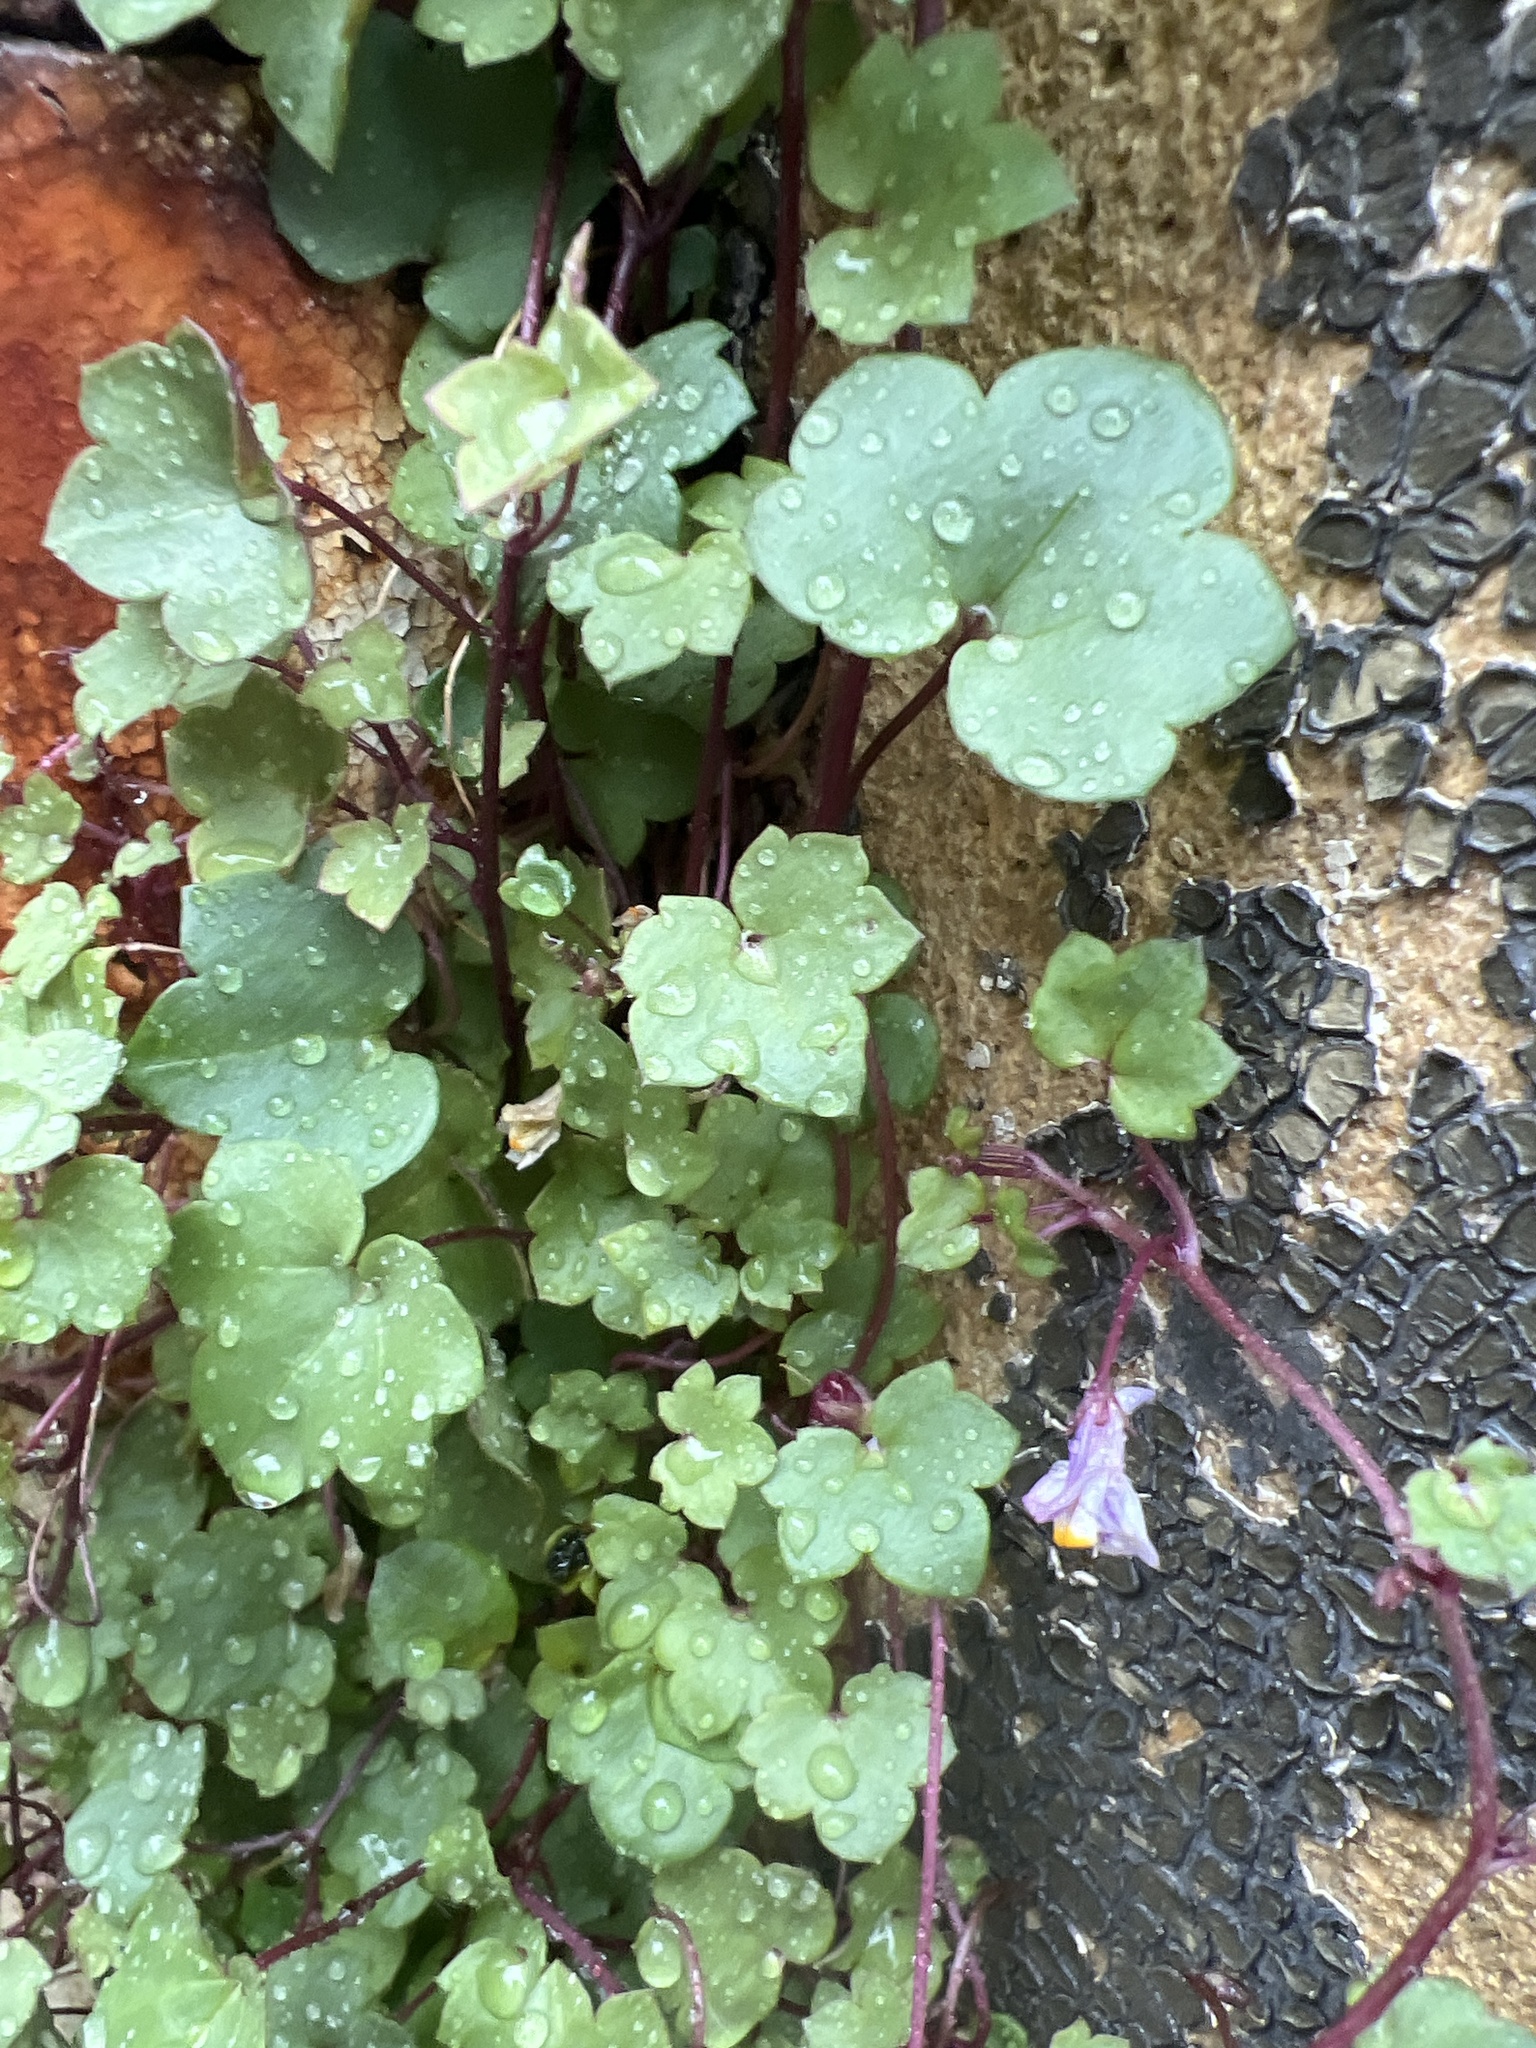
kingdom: Plantae
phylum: Tracheophyta
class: Magnoliopsida
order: Lamiales
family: Plantaginaceae
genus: Cymbalaria
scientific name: Cymbalaria muralis
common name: Ivy-leaved toadflax
